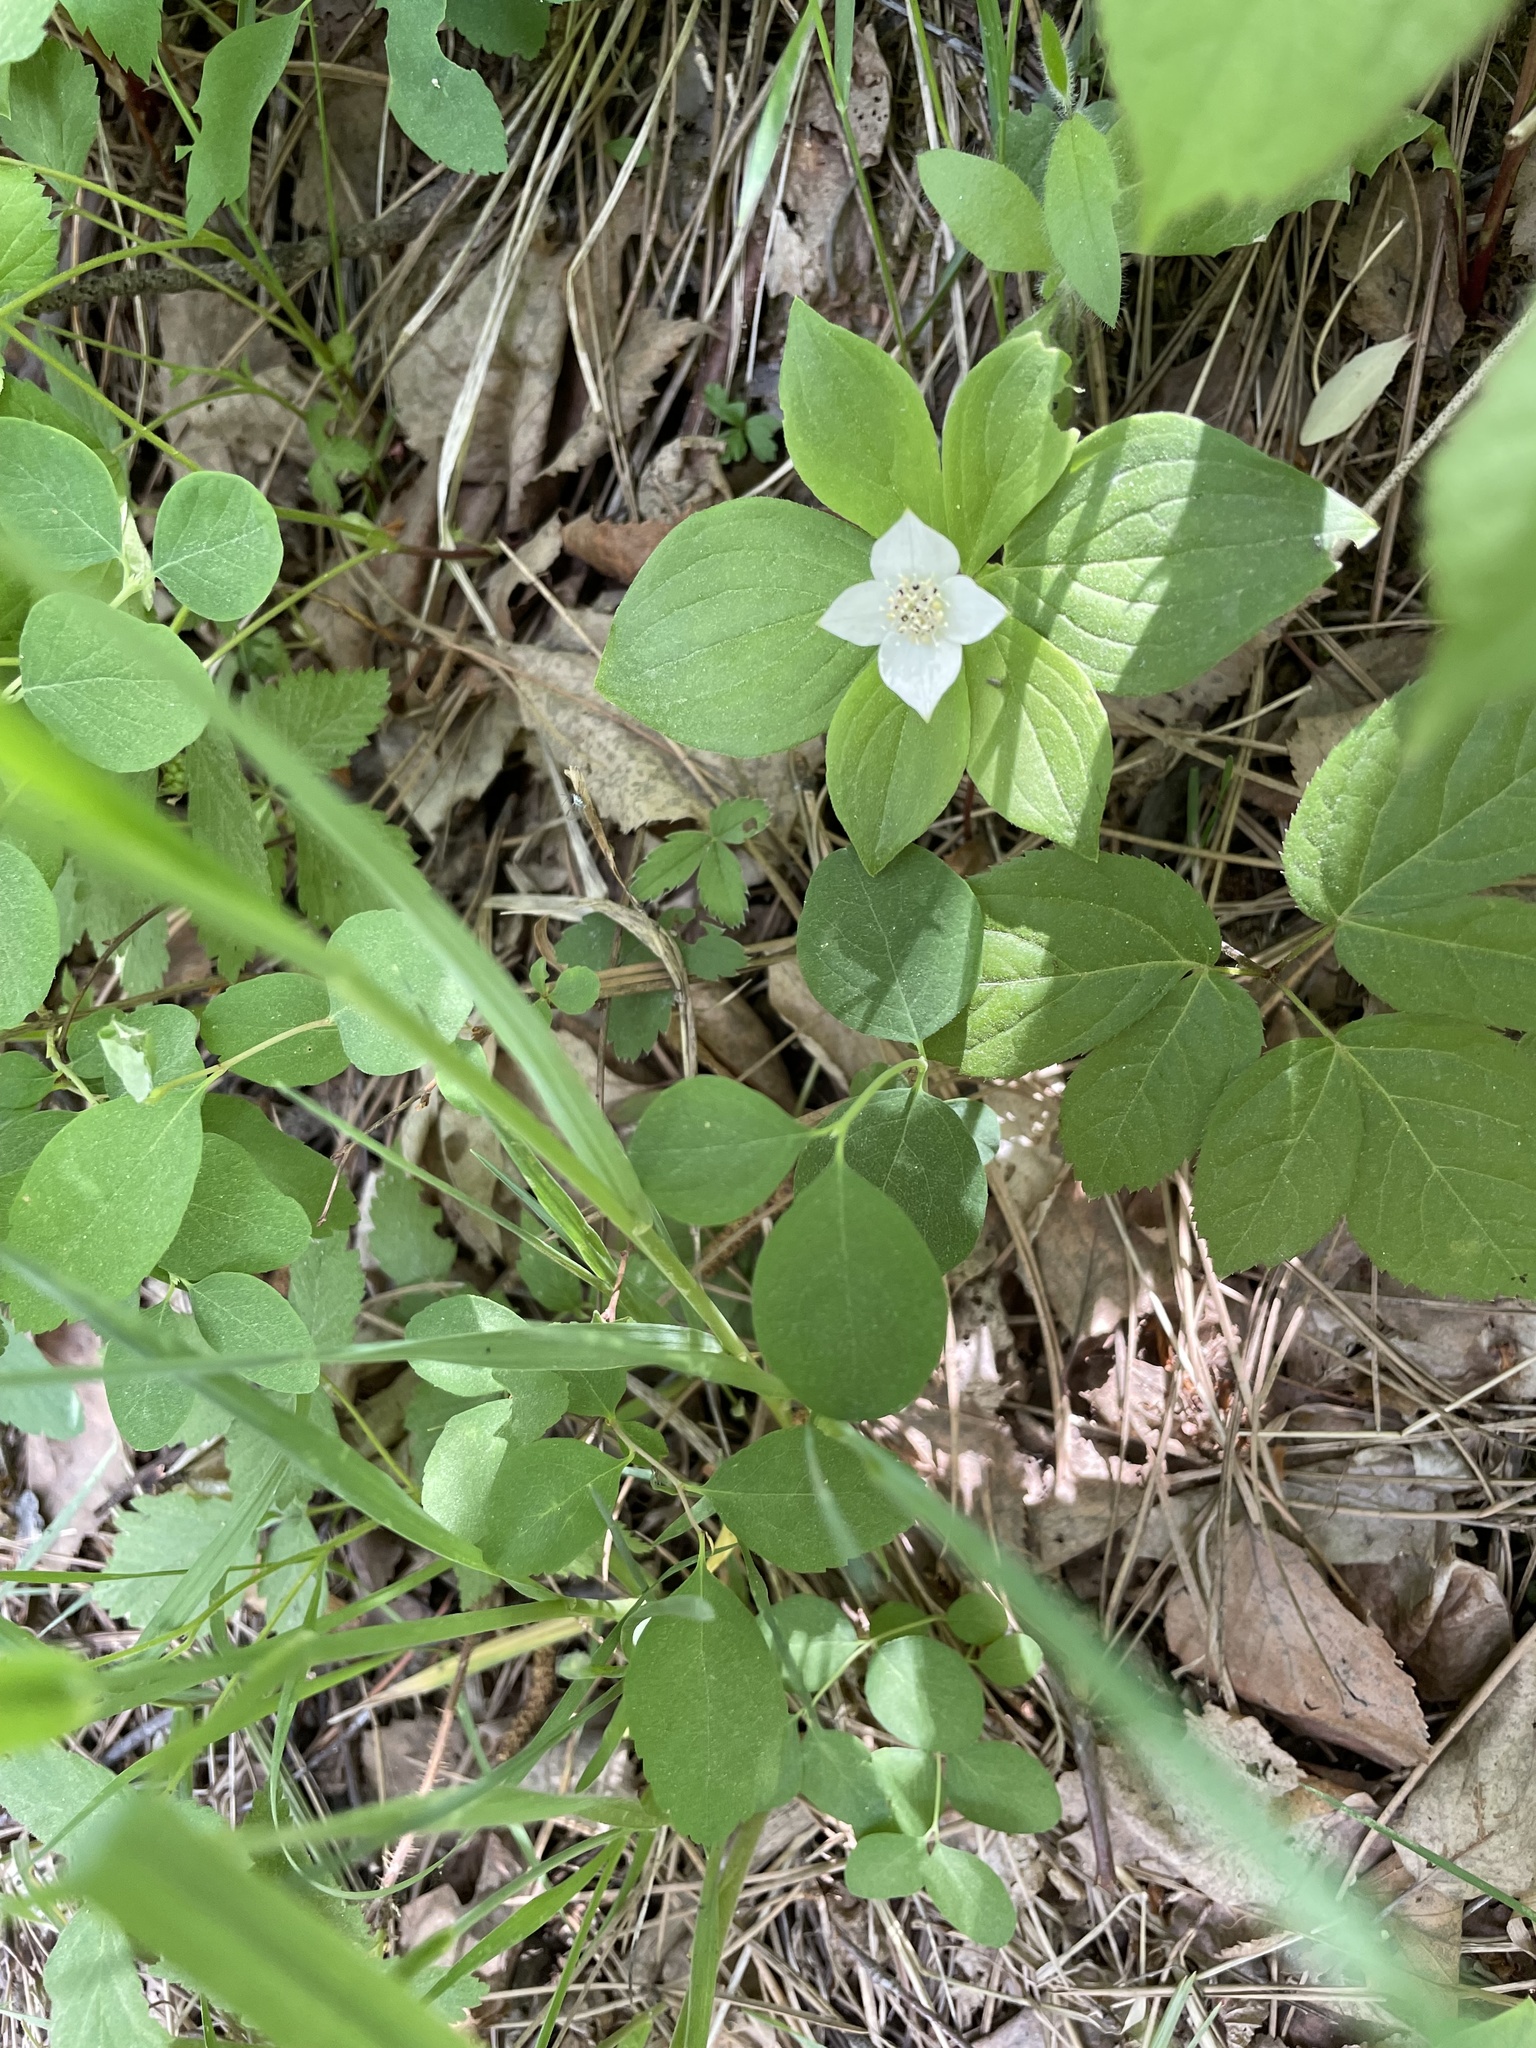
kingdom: Plantae
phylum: Tracheophyta
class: Magnoliopsida
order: Cornales
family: Cornaceae
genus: Cornus
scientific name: Cornus canadensis
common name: Creeping dogwood
